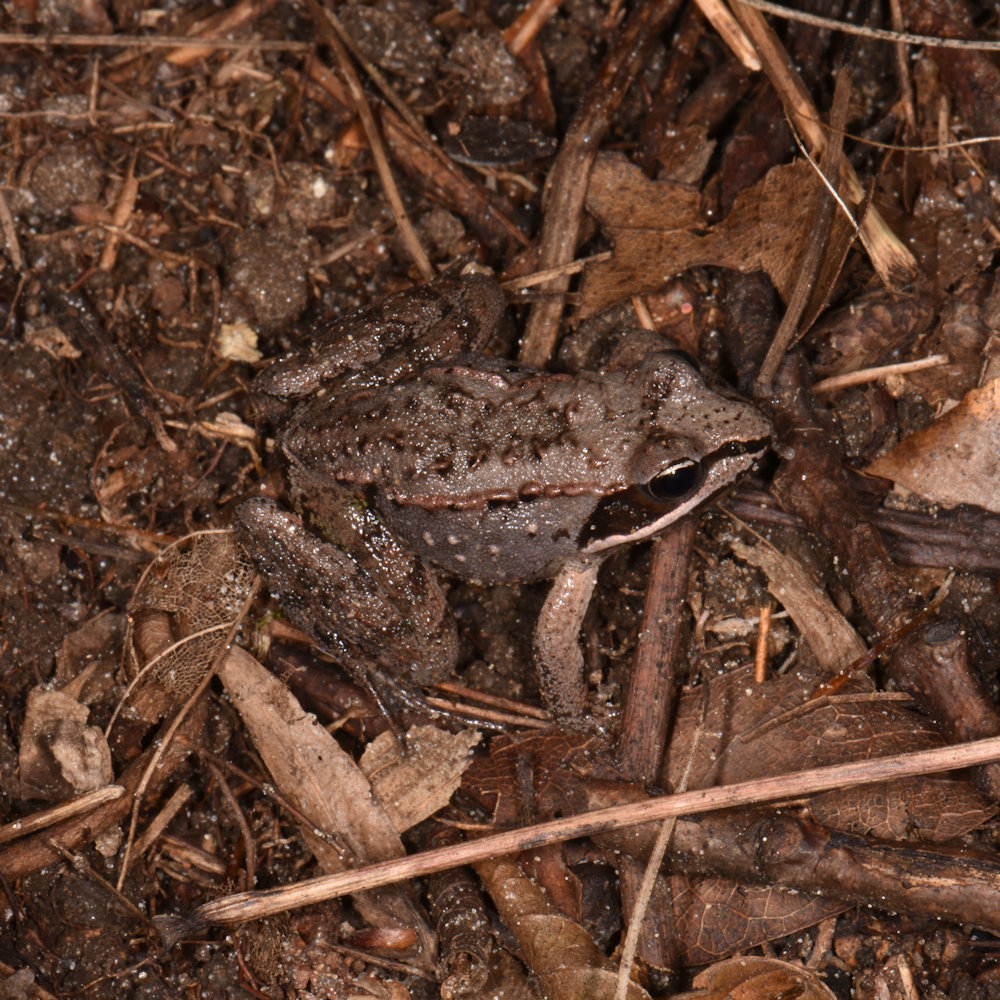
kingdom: Animalia
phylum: Chordata
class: Amphibia
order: Anura
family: Ranidae
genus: Lithobates
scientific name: Lithobates sylvaticus
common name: Wood frog
